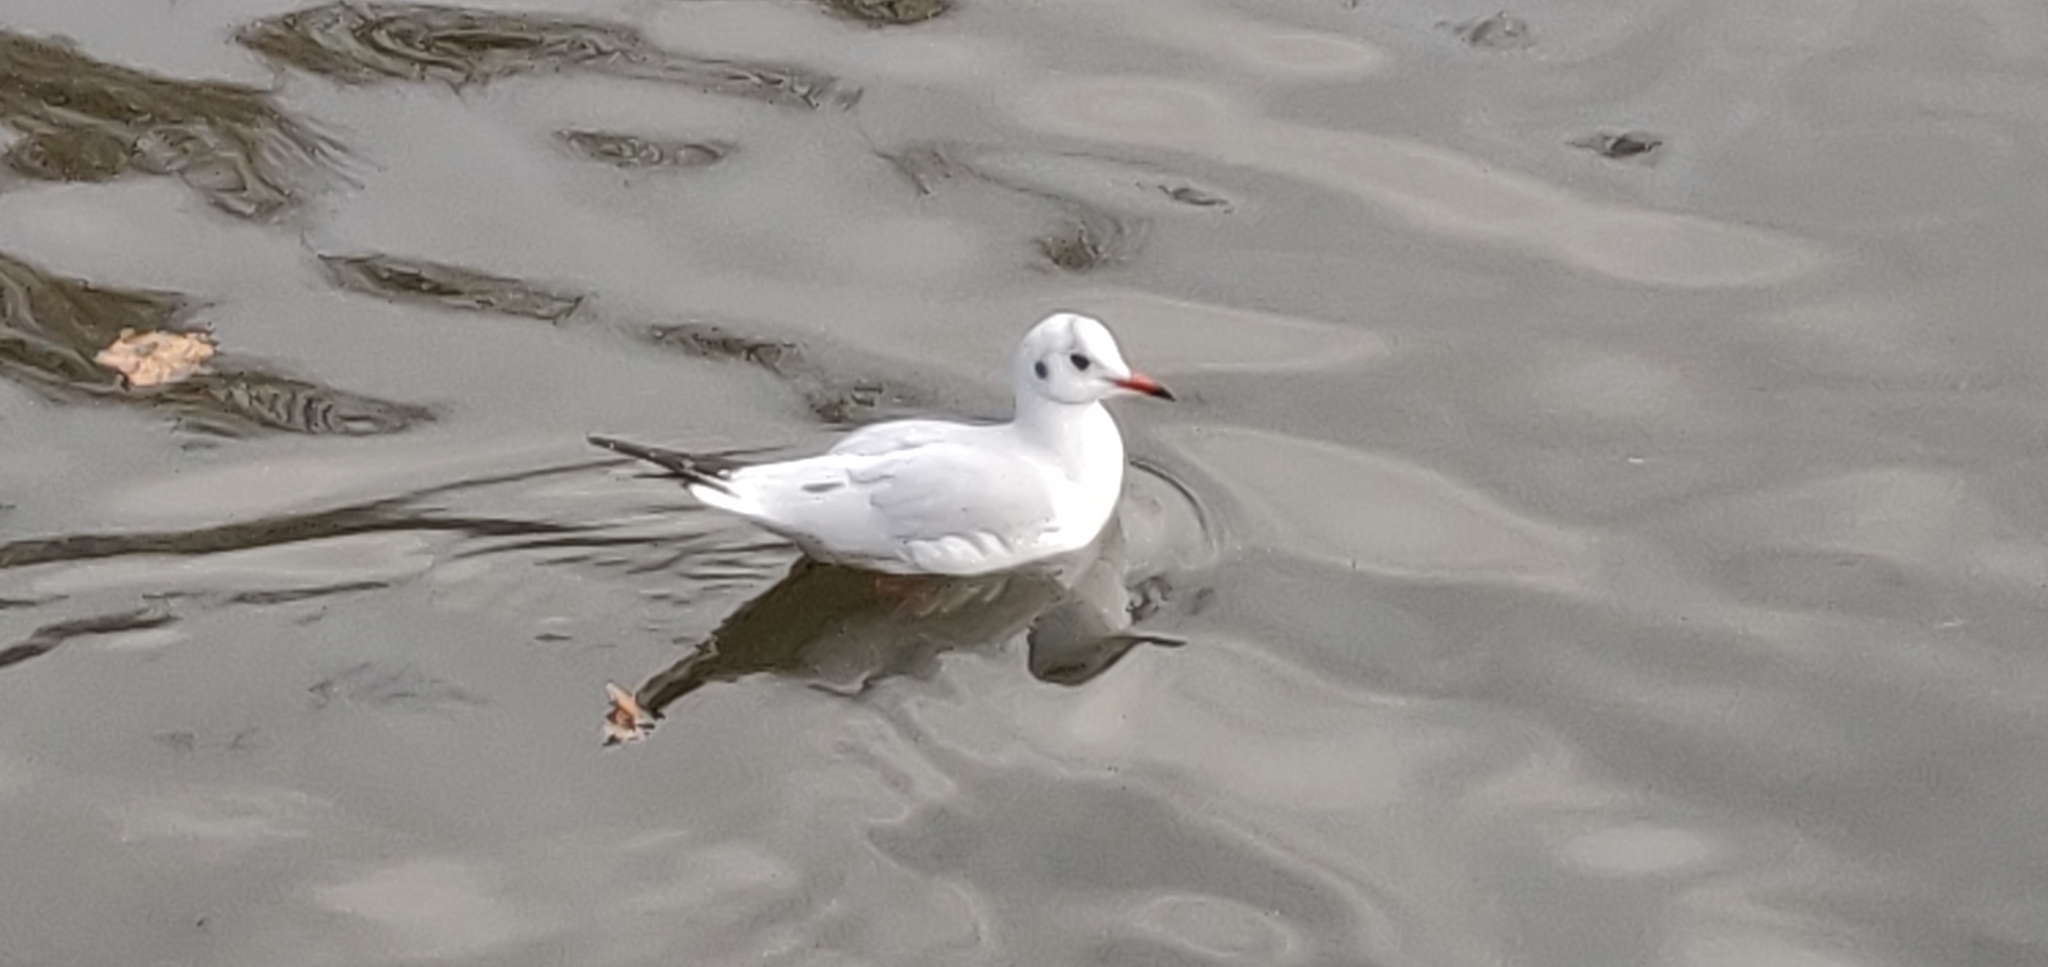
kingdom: Animalia
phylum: Chordata
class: Aves
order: Charadriiformes
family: Laridae
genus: Chroicocephalus
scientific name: Chroicocephalus ridibundus
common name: Black-headed gull
